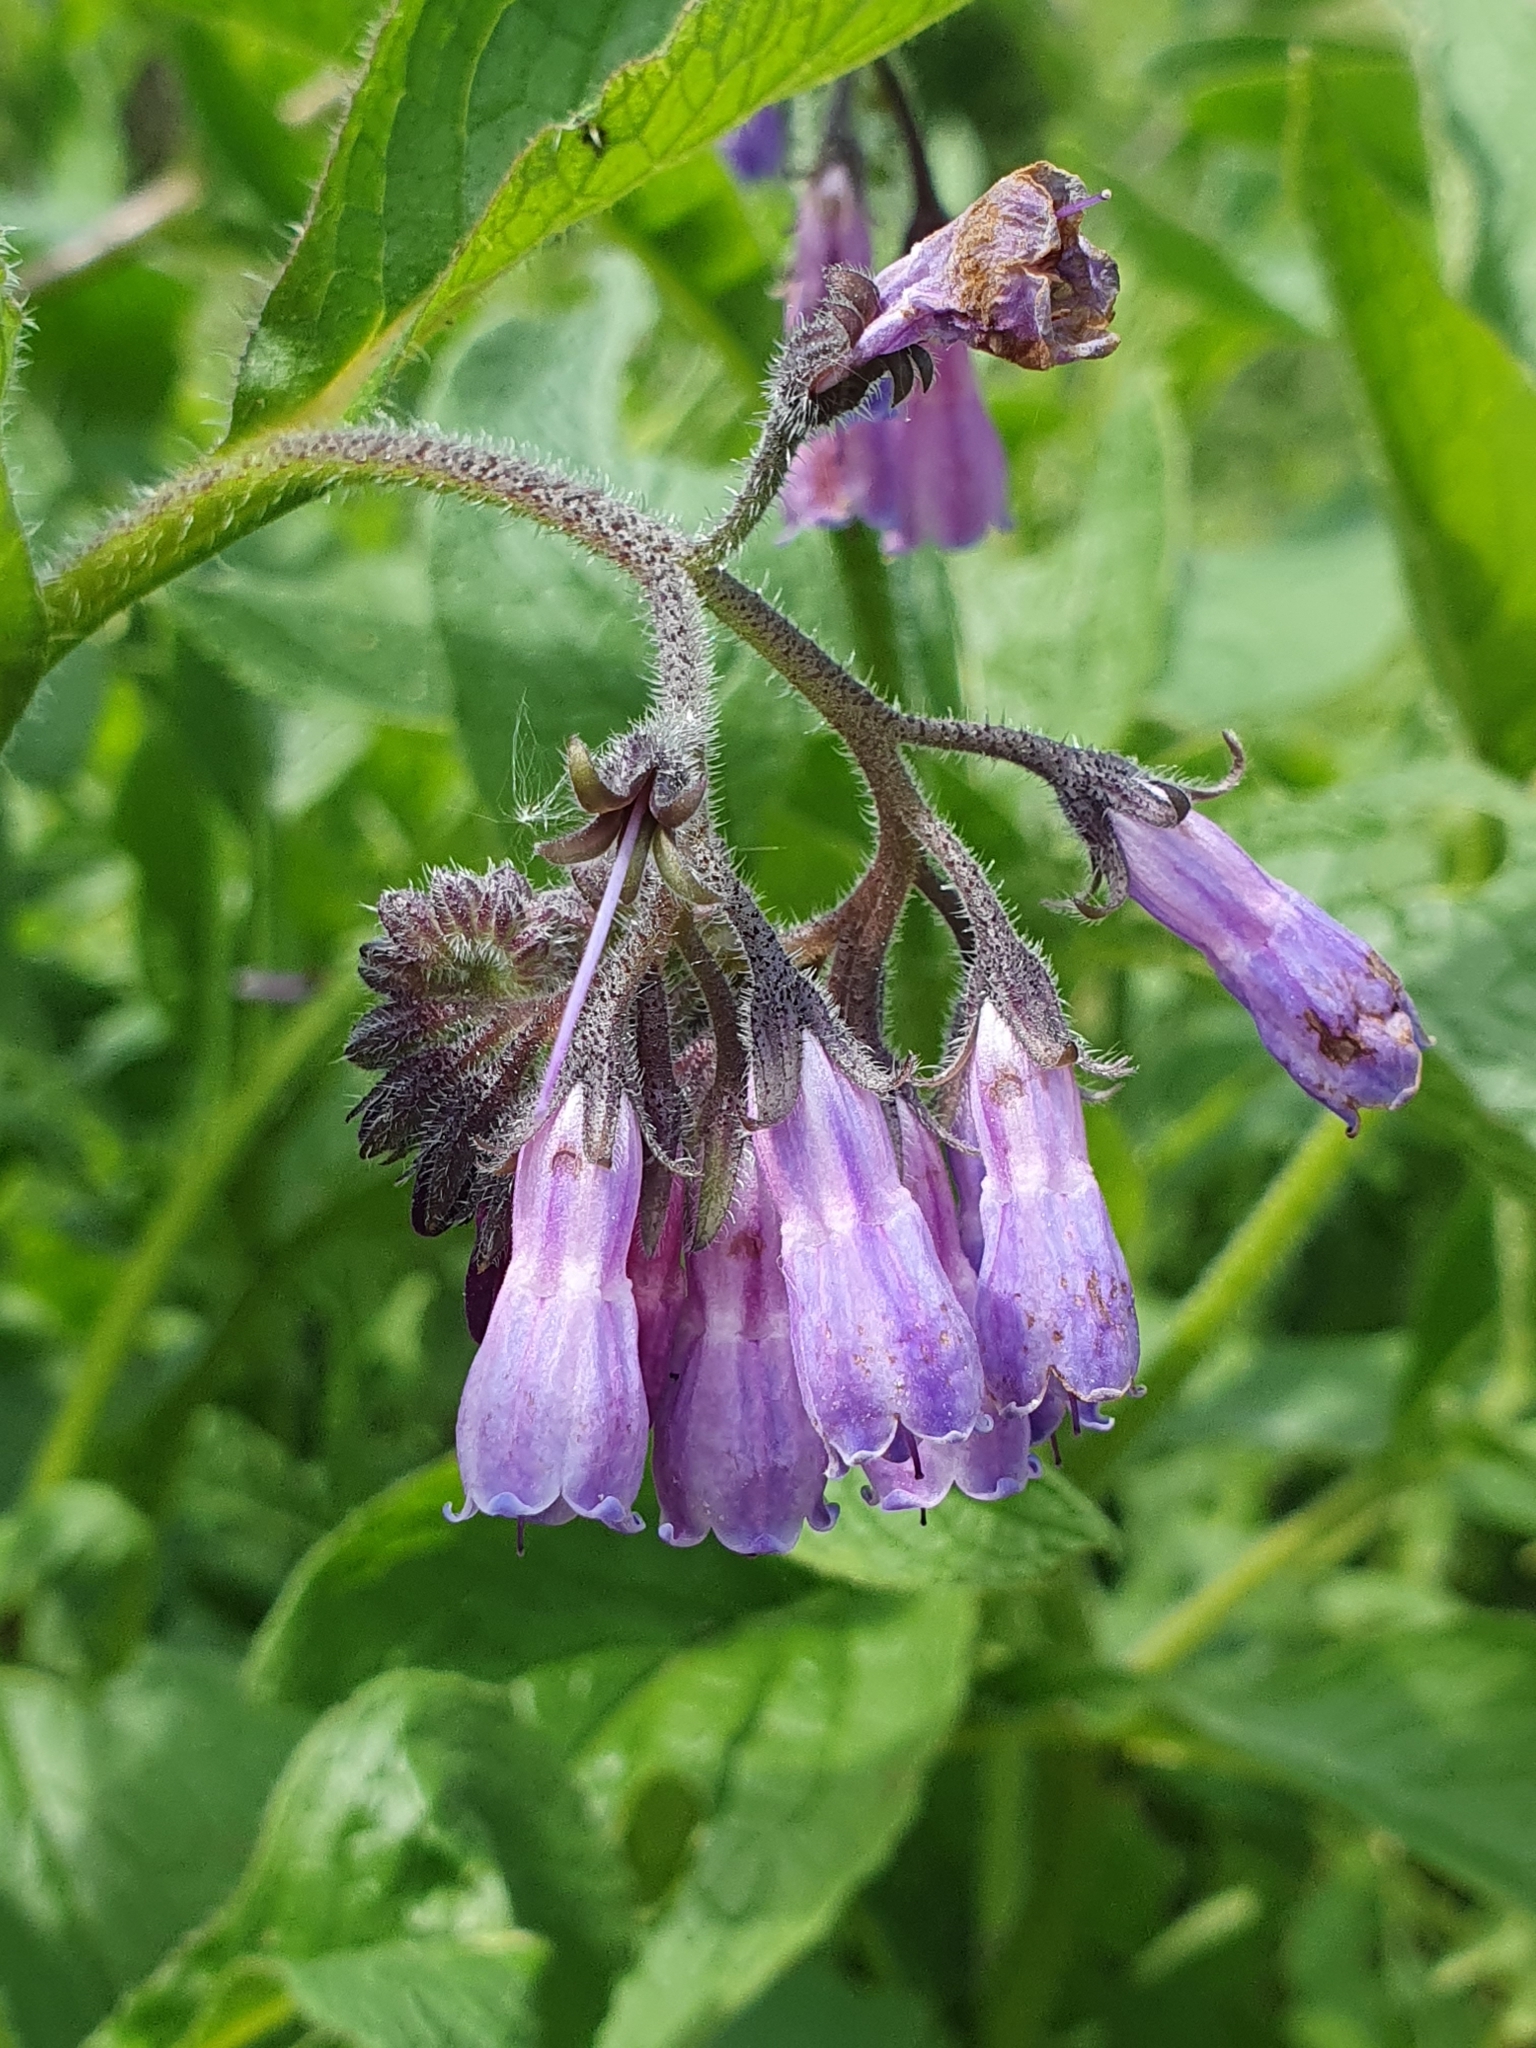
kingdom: Plantae
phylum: Tracheophyta
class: Magnoliopsida
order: Boraginales
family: Boraginaceae
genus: Symphytum
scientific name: Symphytum officinale
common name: Common comfrey
